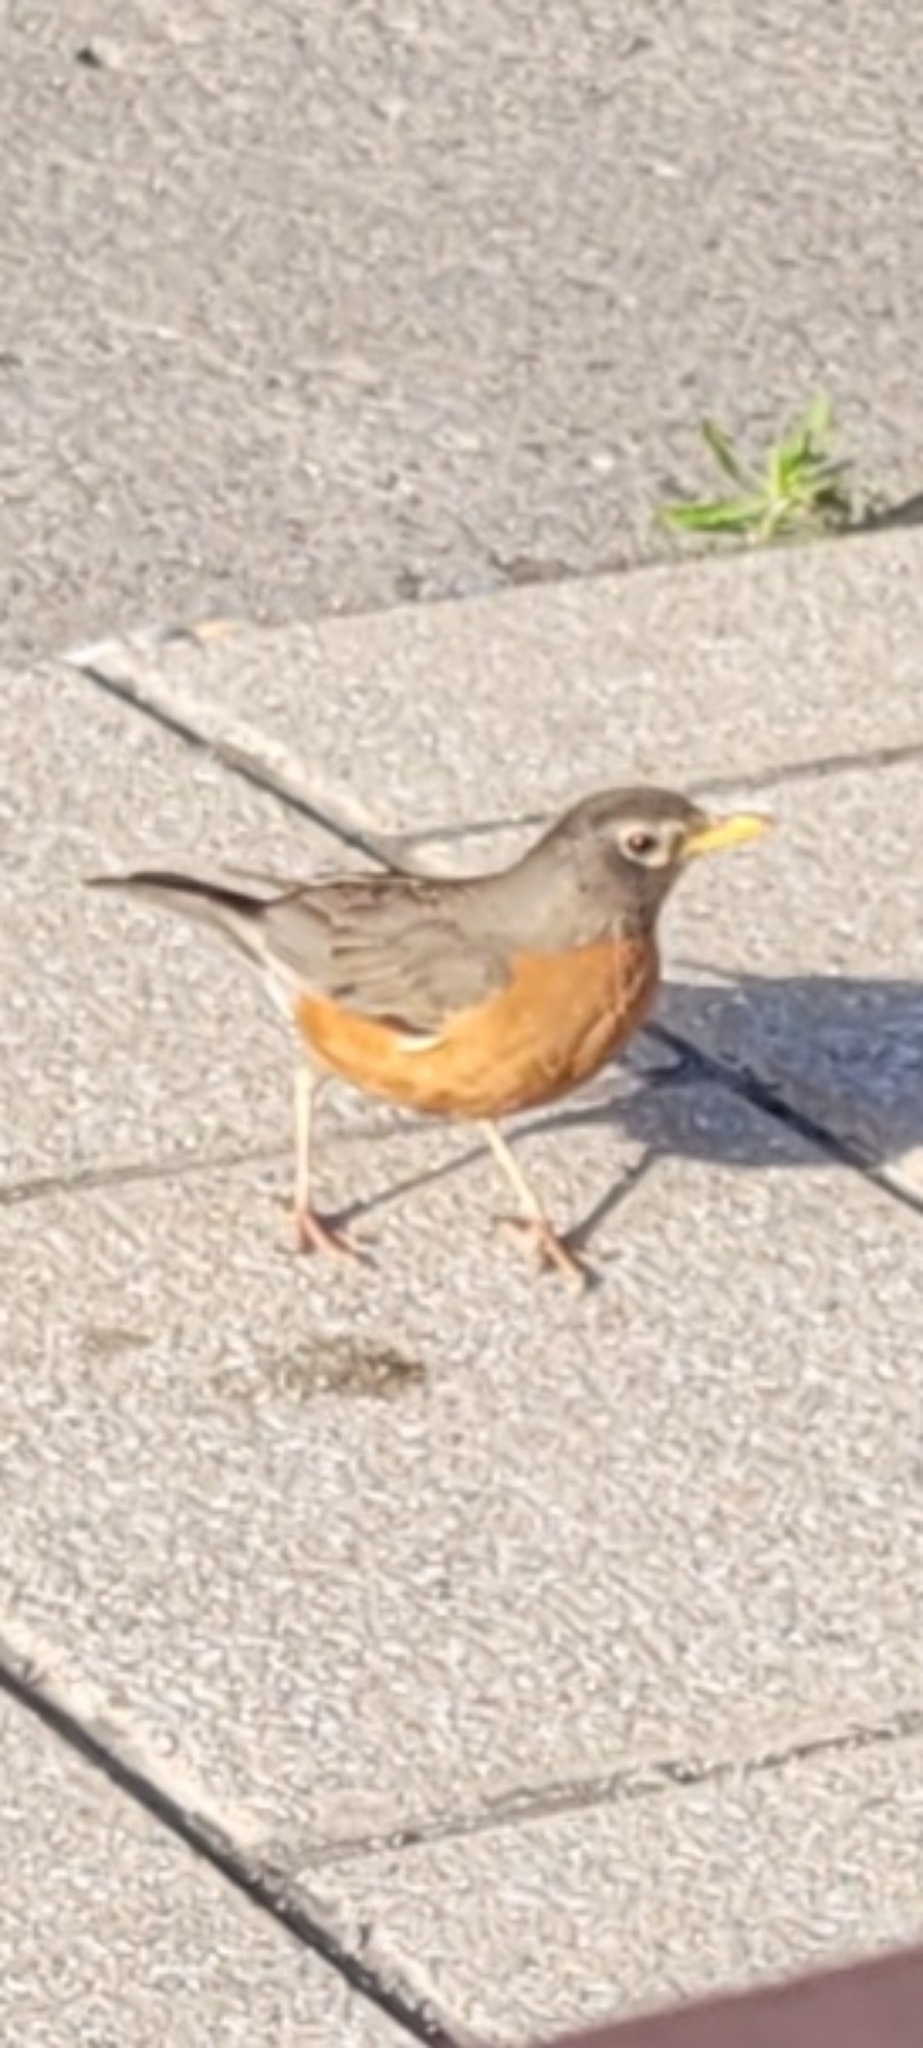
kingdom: Animalia
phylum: Chordata
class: Aves
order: Passeriformes
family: Turdidae
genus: Turdus
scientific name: Turdus migratorius
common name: American robin
